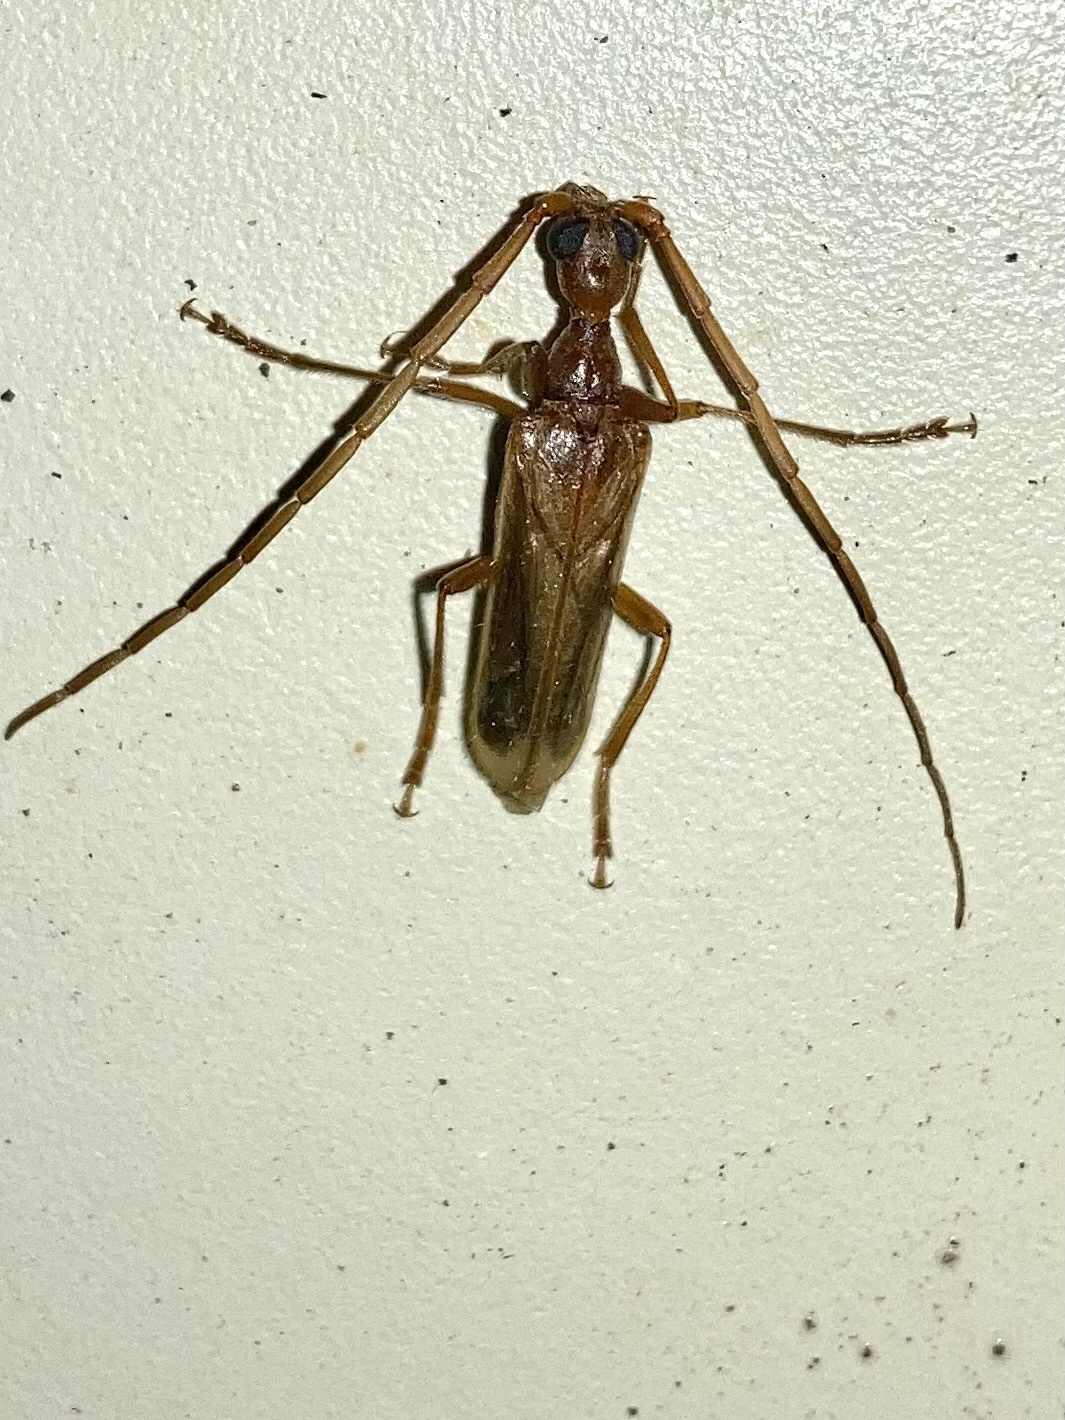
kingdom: Animalia
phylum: Arthropoda
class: Insecta
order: Coleoptera
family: Cerambycidae
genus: Vesperus
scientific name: Vesperus luridus
